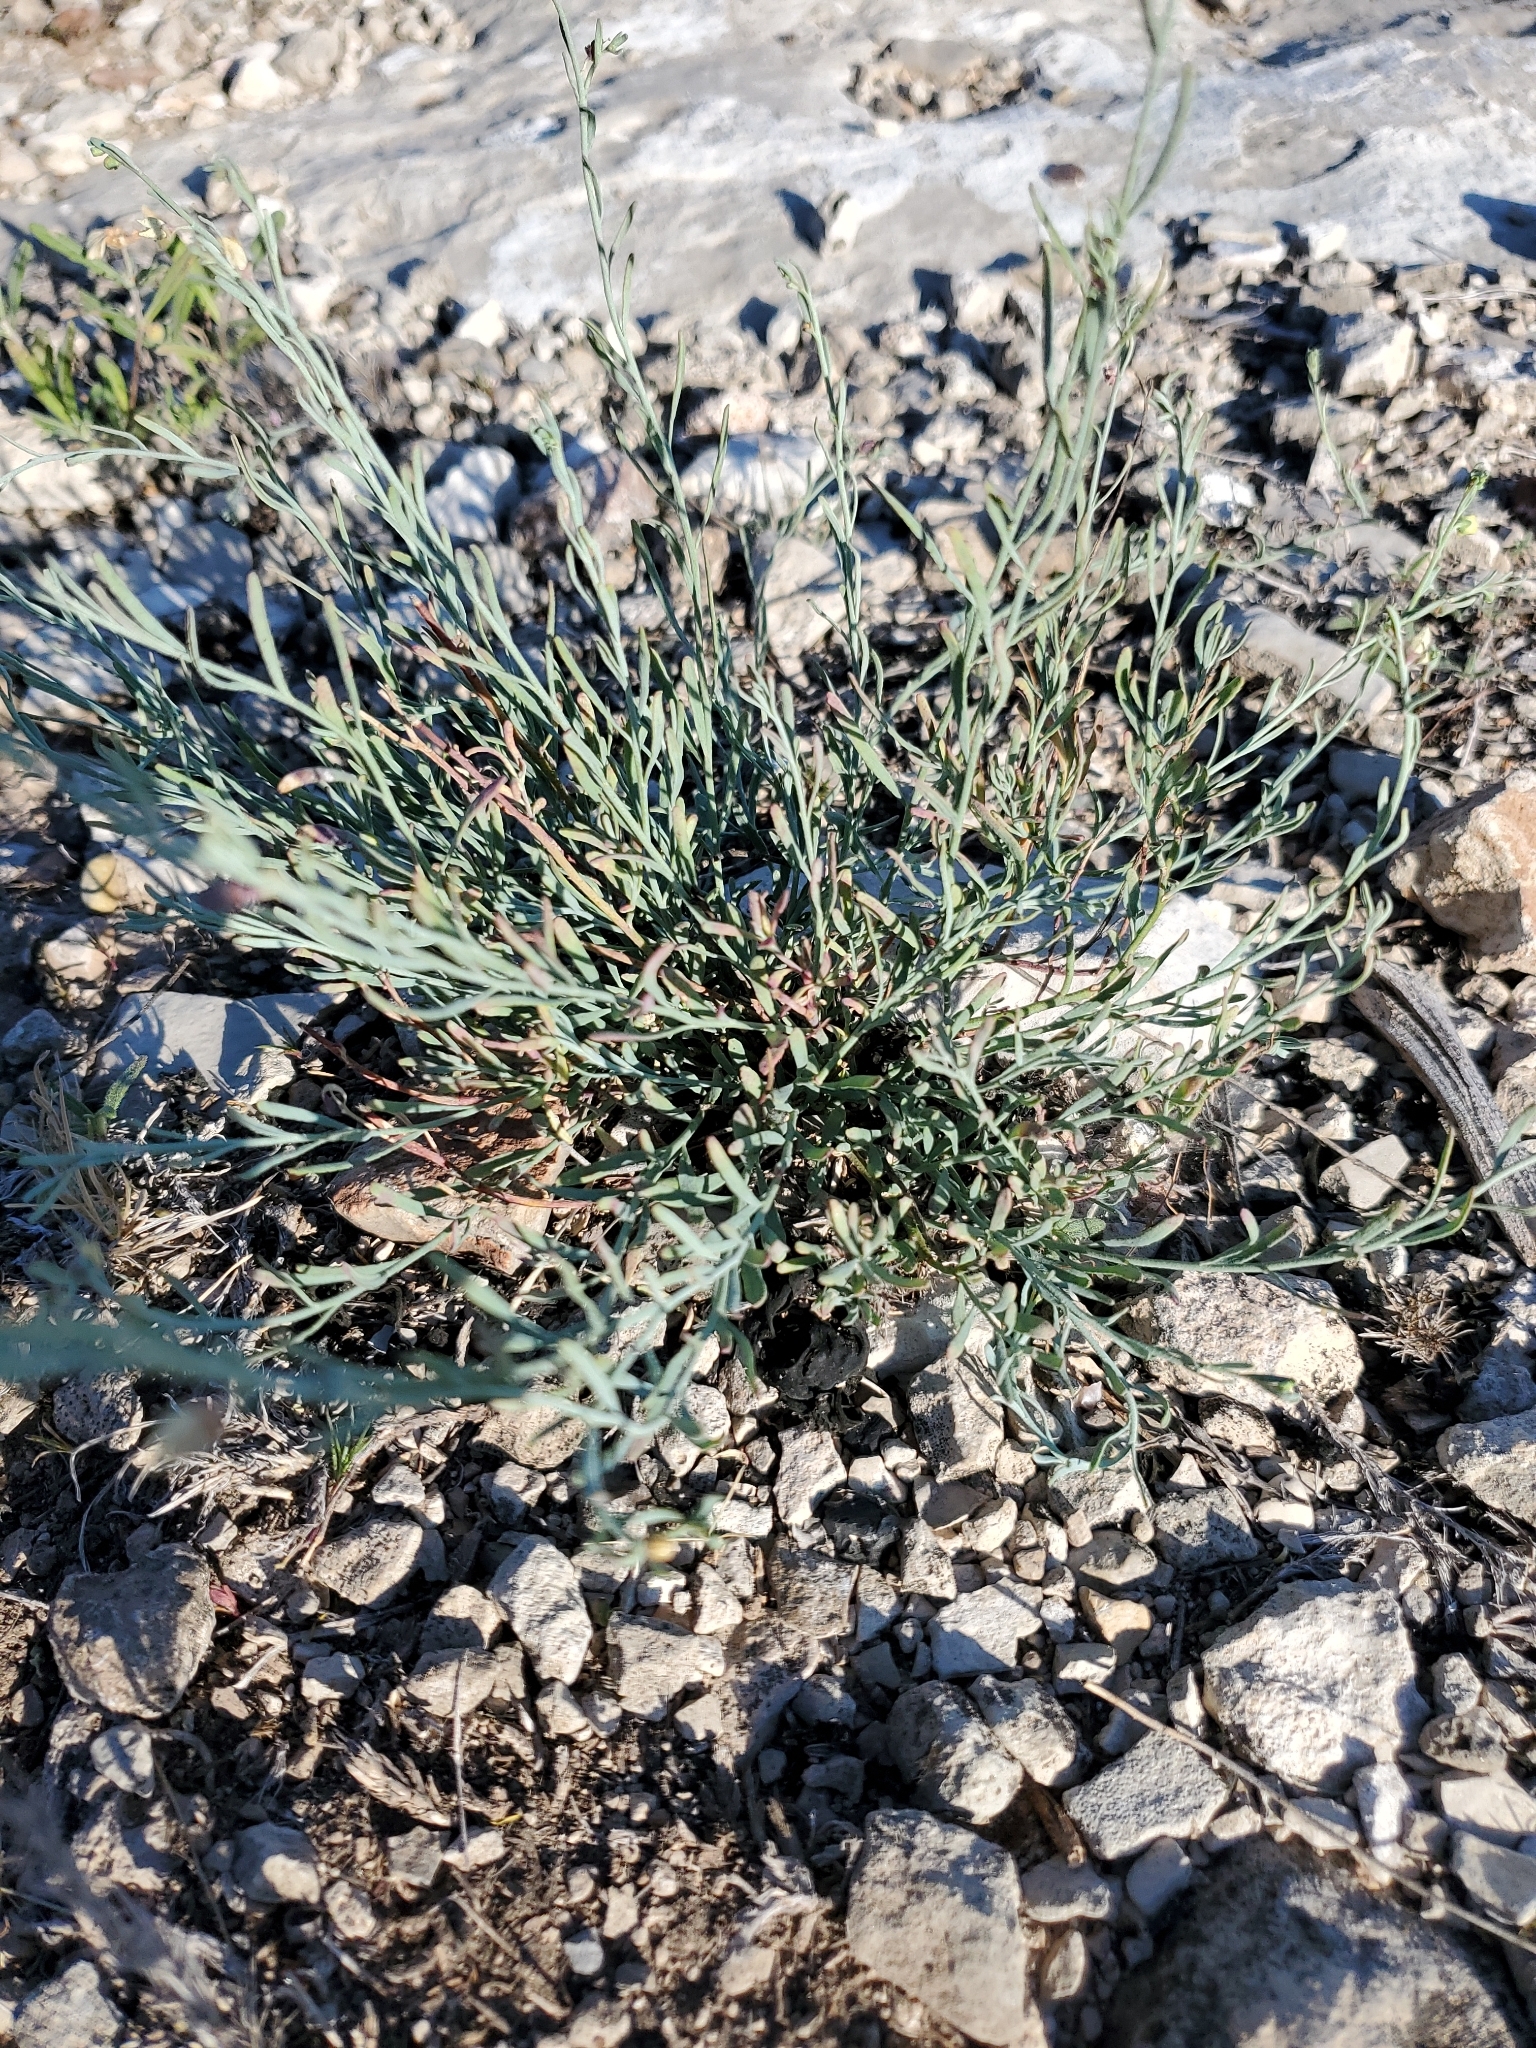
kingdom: Plantae
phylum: Tracheophyta
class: Magnoliopsida
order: Sapindales
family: Rutaceae
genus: Thamnosma
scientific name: Thamnosma texana
